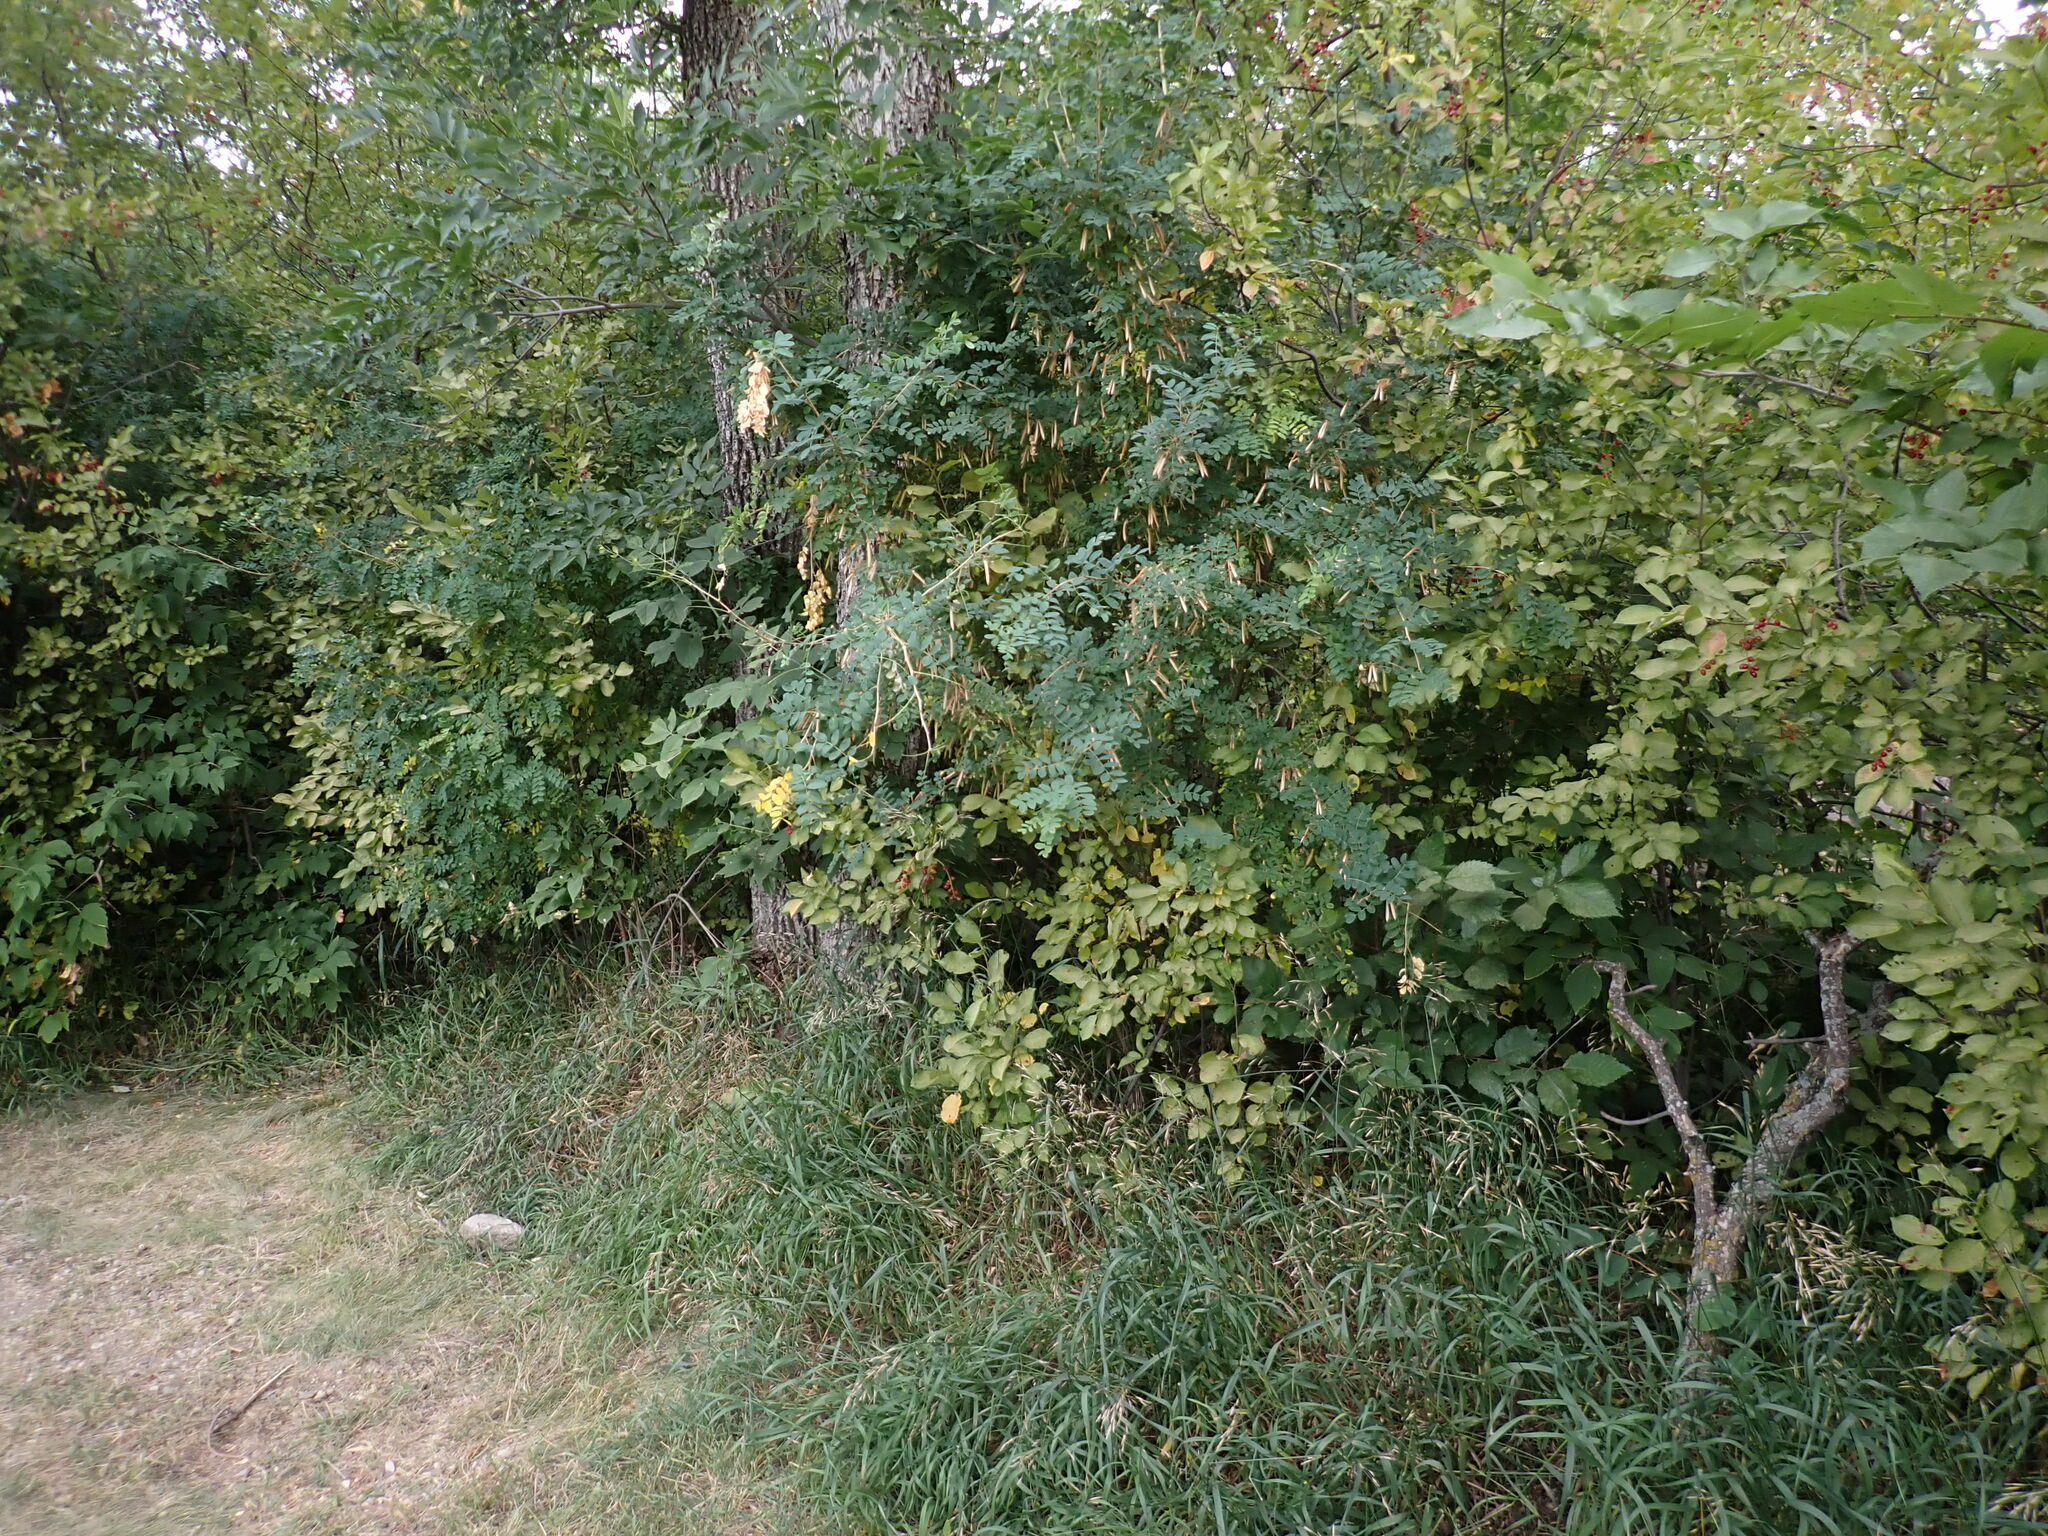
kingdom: Plantae
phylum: Tracheophyta
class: Magnoliopsida
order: Fabales
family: Fabaceae
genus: Caragana
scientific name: Caragana arborescens
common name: Siberian peashrub
